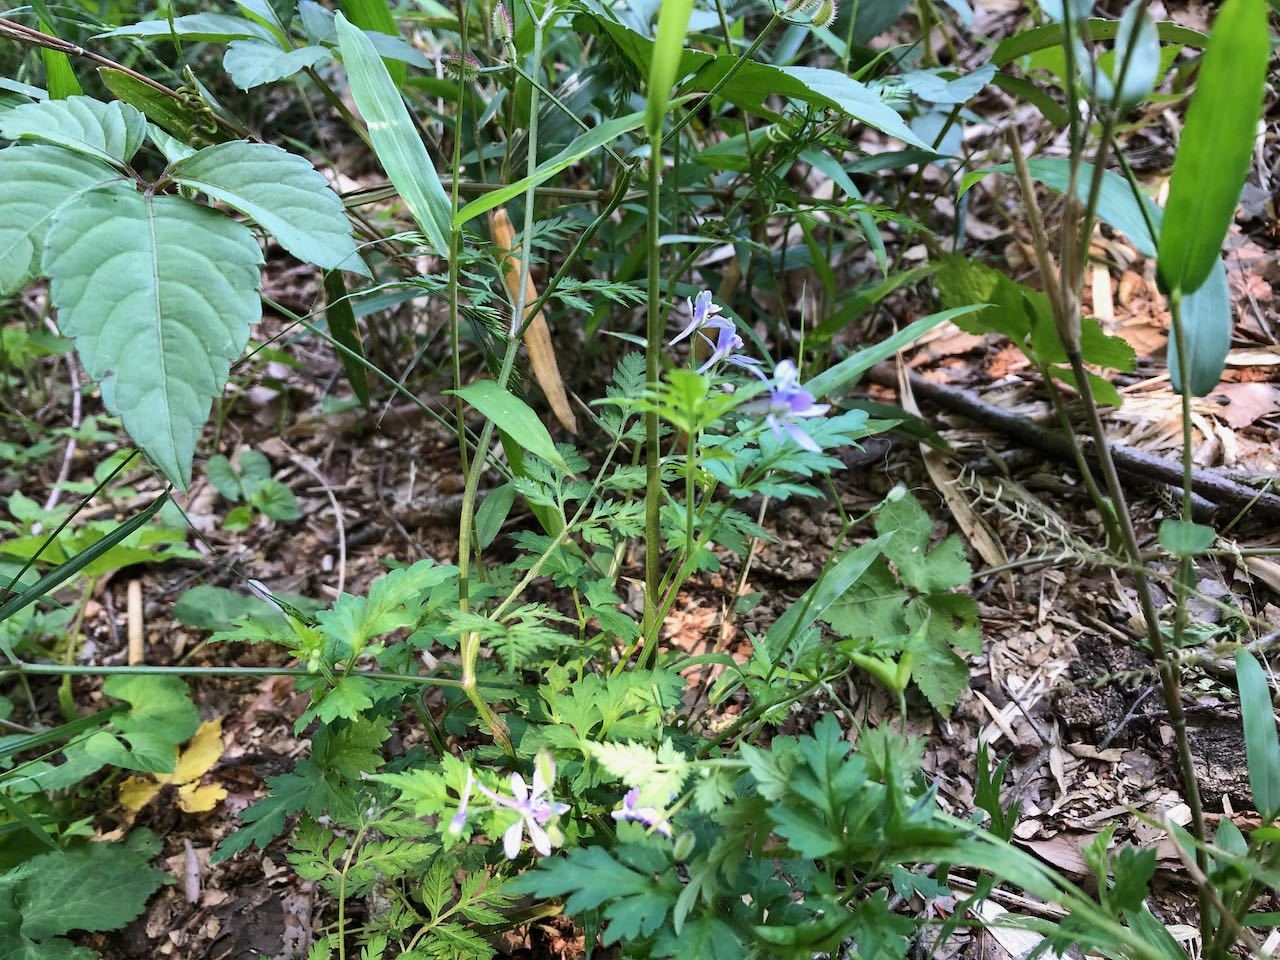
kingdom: Plantae
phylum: Tracheophyta
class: Magnoliopsida
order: Ranunculales
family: Ranunculaceae
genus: Delphinium
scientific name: Delphinium anthriscifolium
